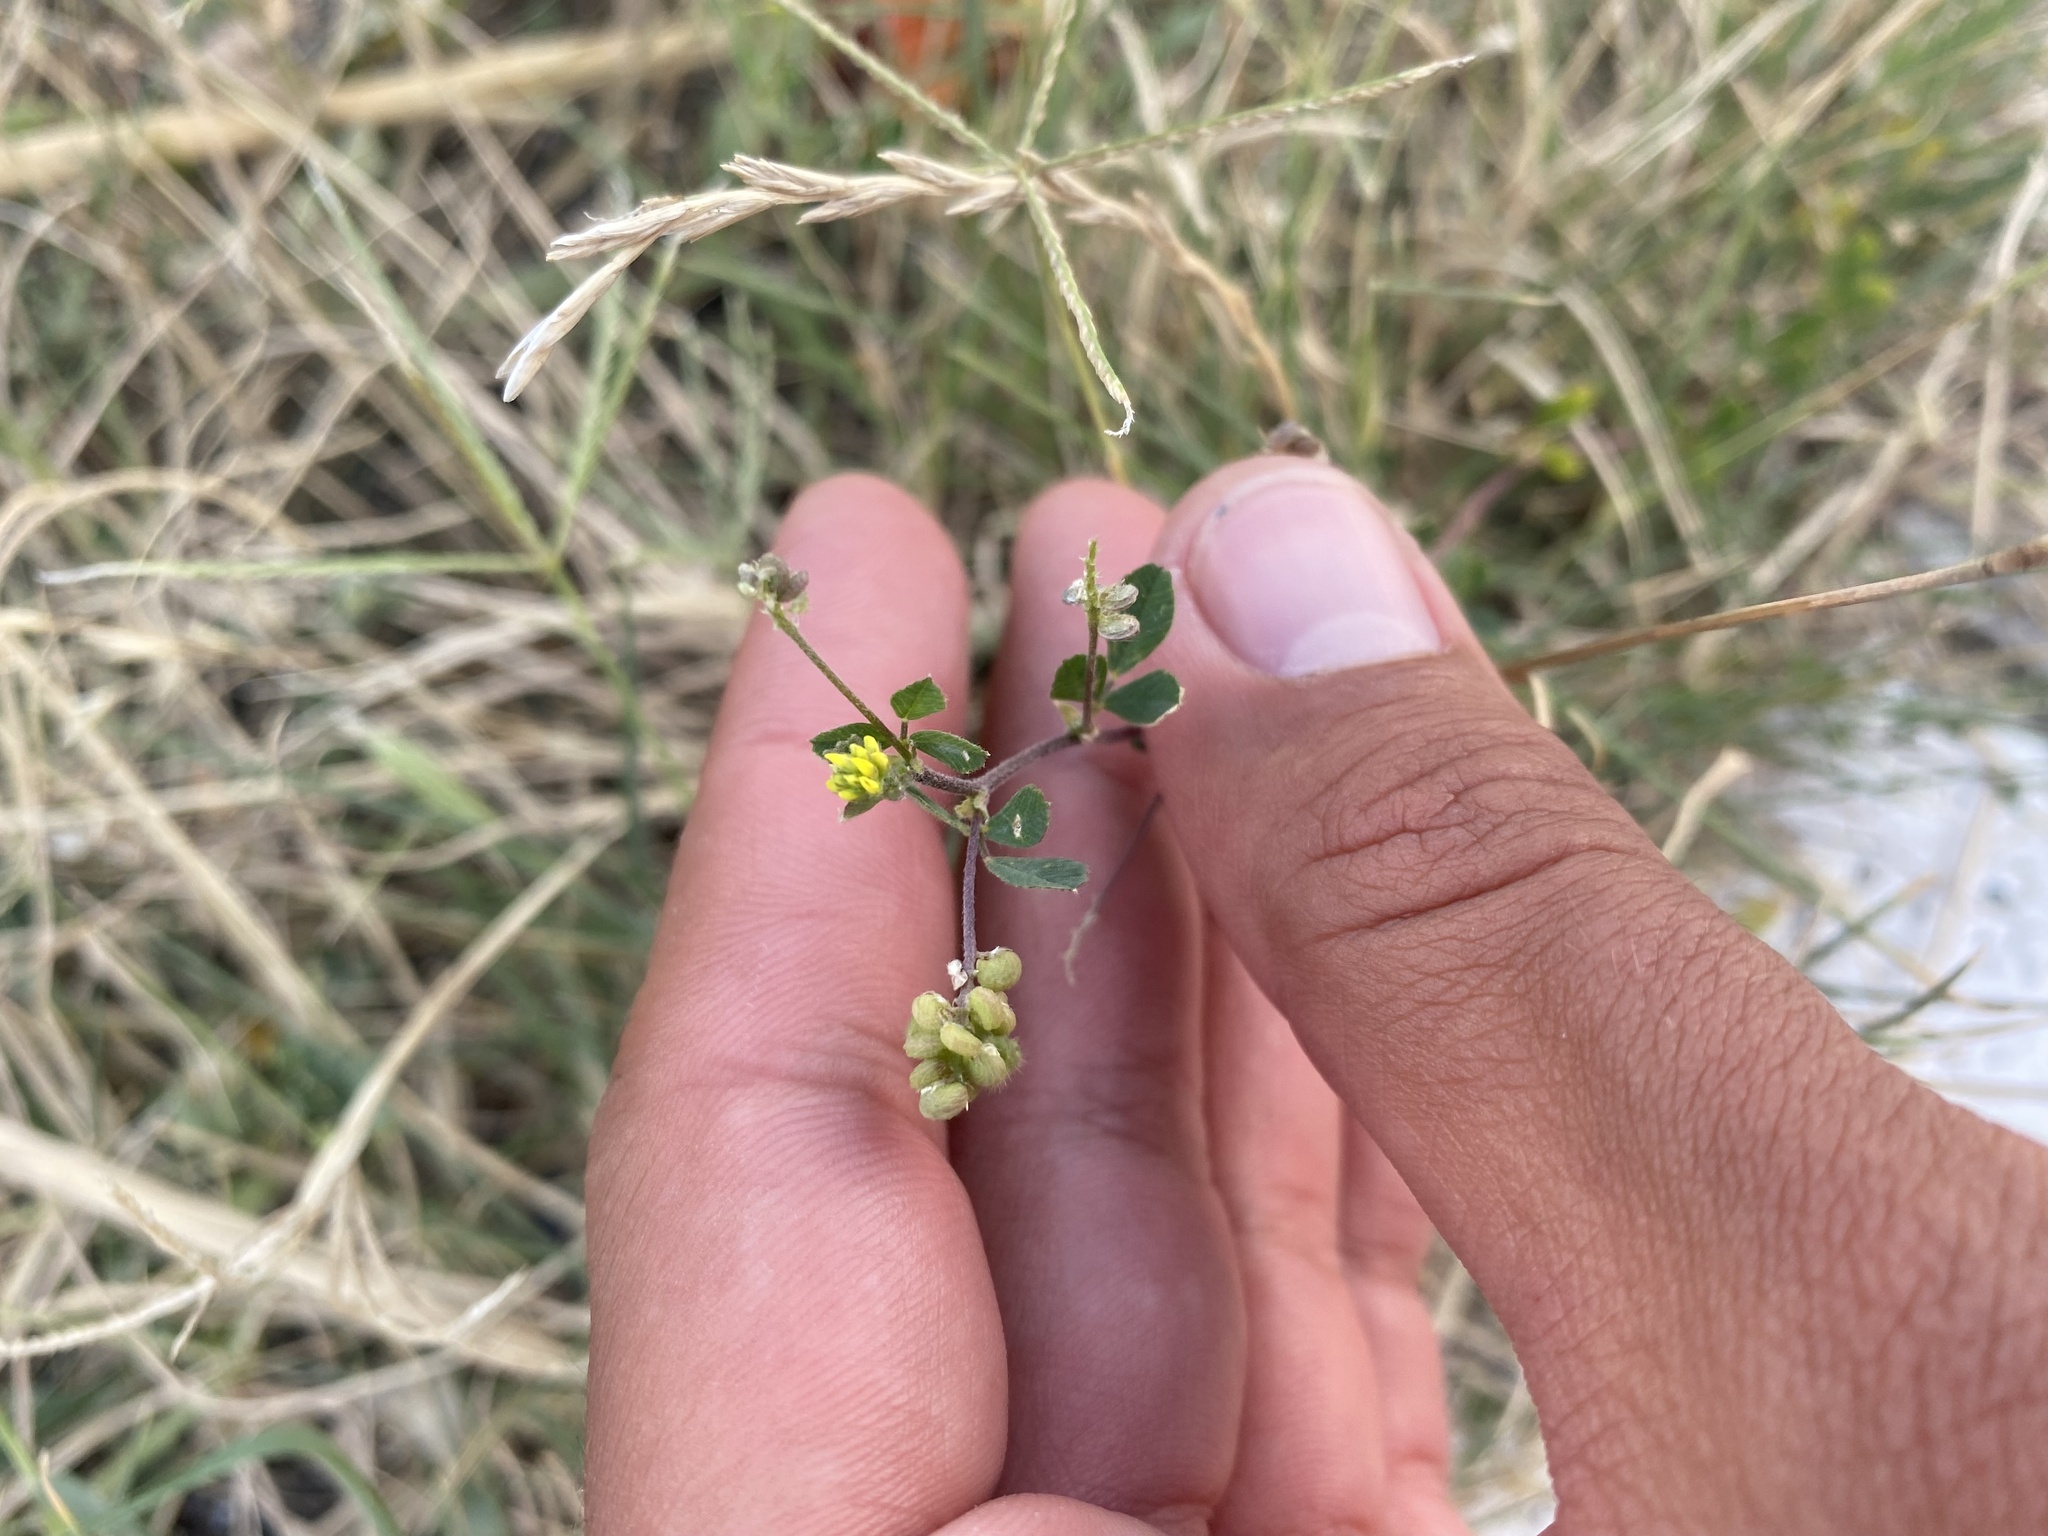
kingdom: Plantae
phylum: Tracheophyta
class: Magnoliopsida
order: Fabales
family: Fabaceae
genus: Medicago
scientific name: Medicago lupulina
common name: Black medick
